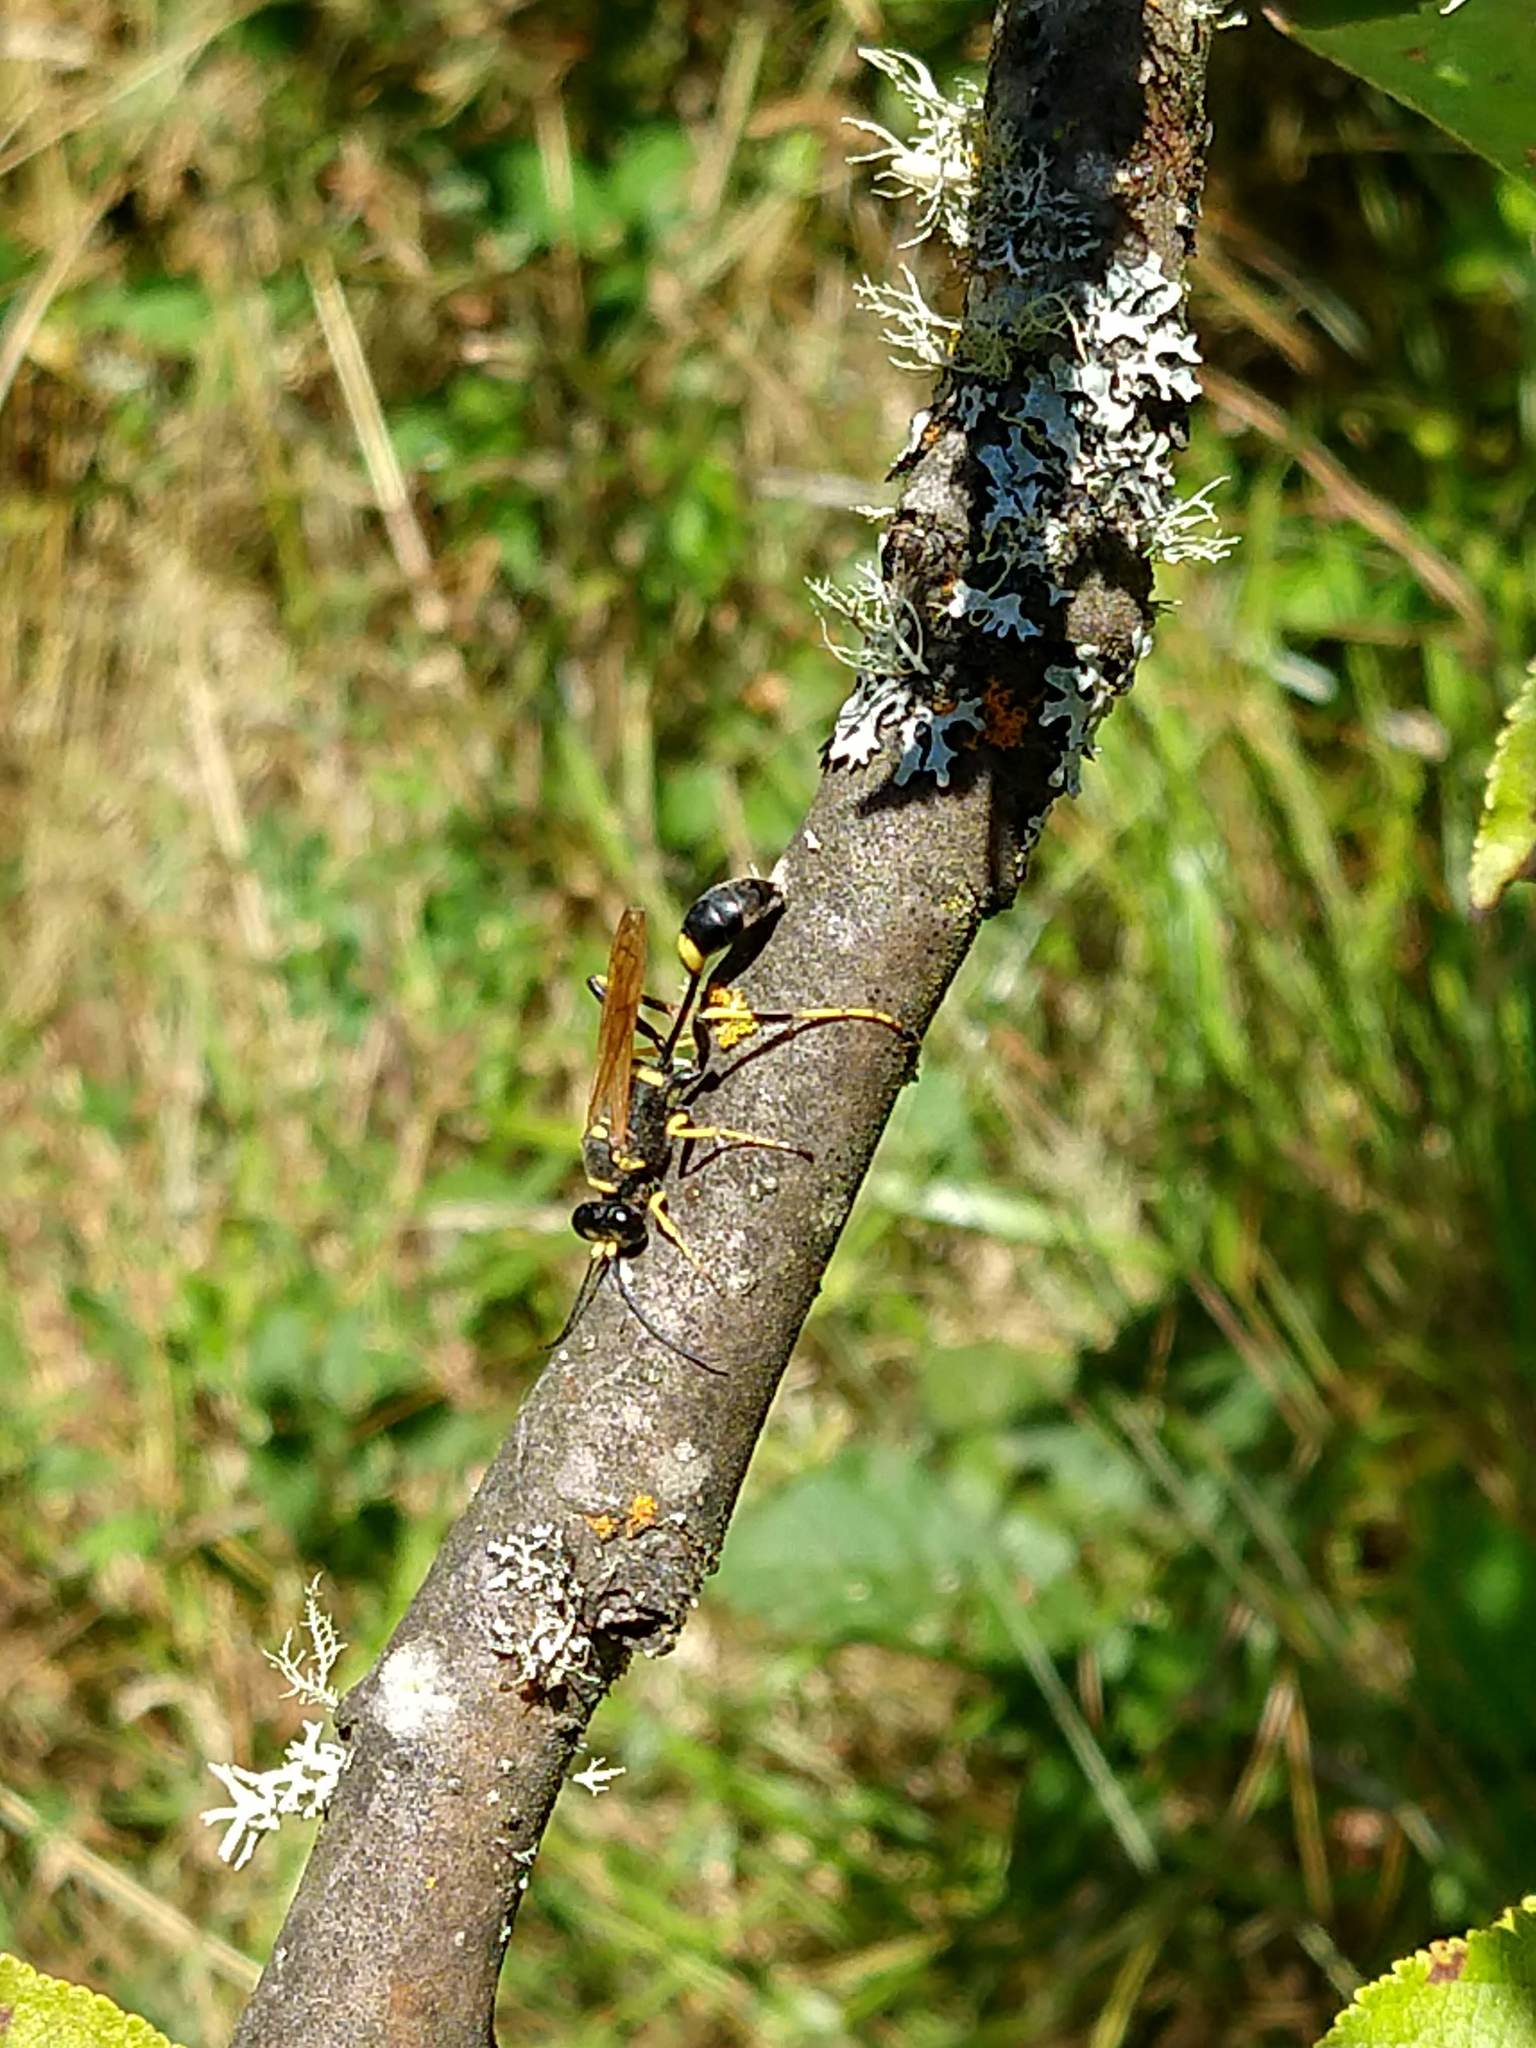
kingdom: Animalia
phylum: Arthropoda
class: Insecta
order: Hymenoptera
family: Sphecidae
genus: Sceliphron
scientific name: Sceliphron caementarium
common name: Mud dauber
